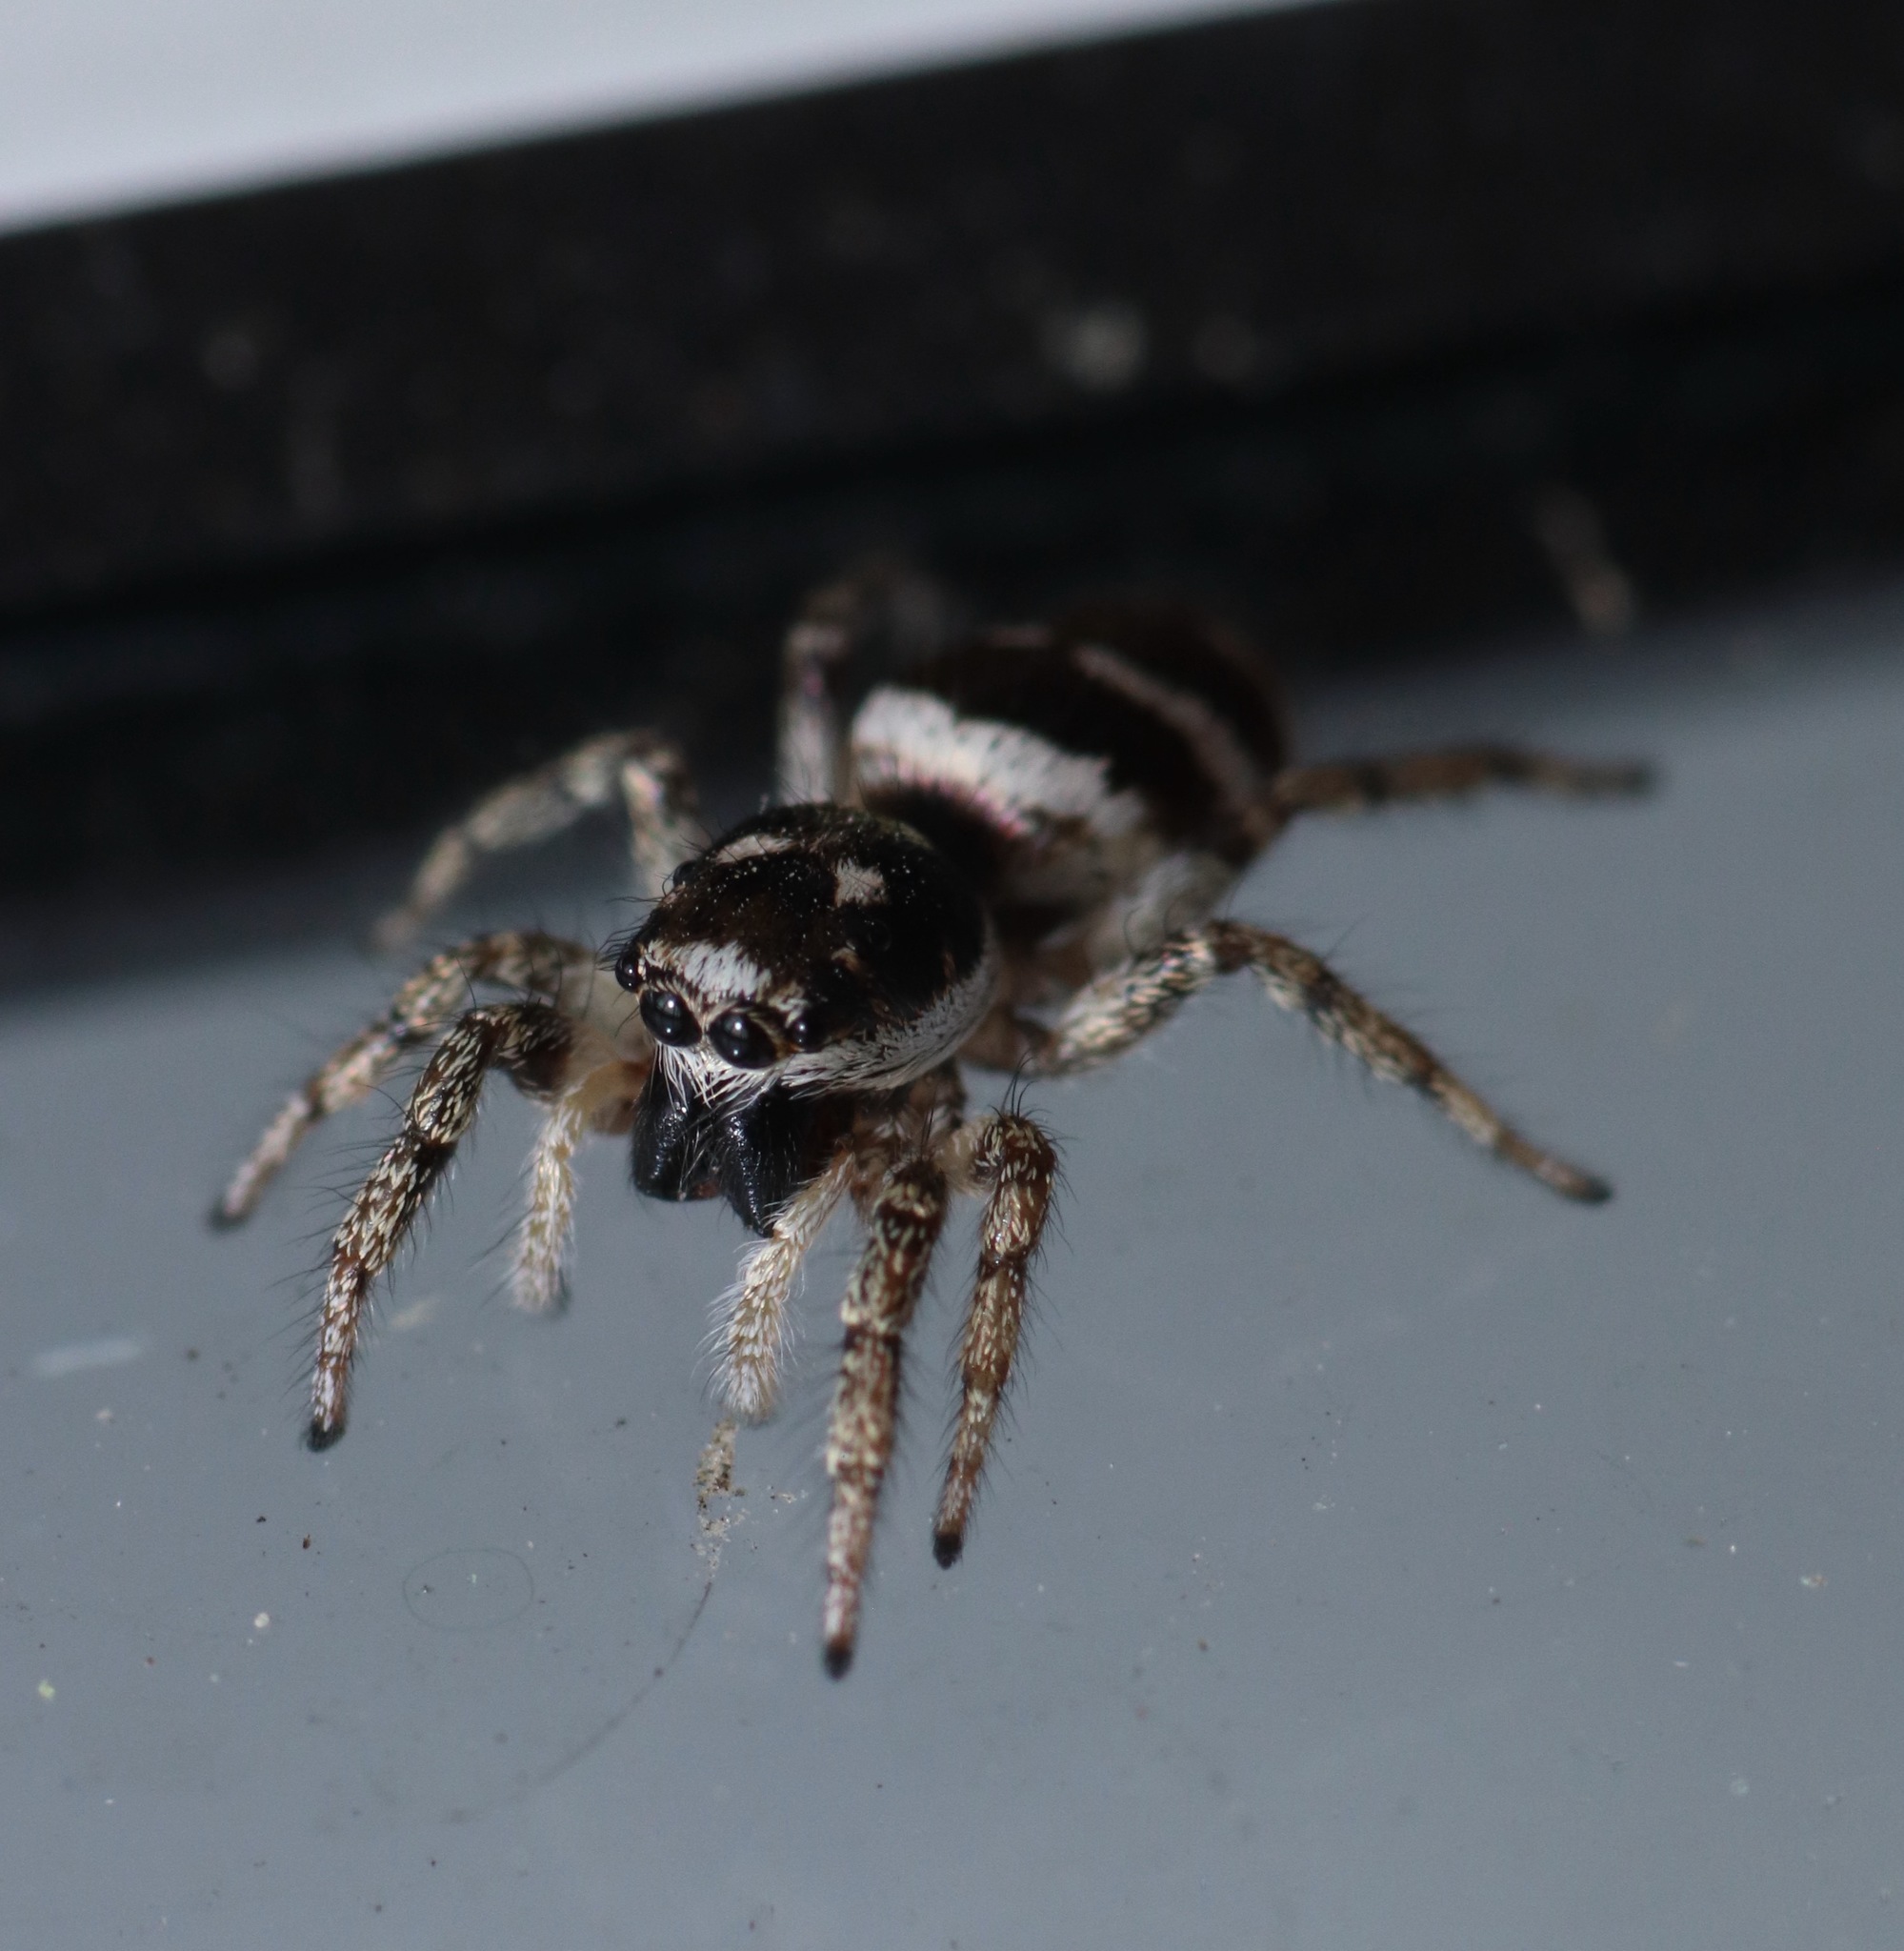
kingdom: Animalia
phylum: Arthropoda
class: Arachnida
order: Araneae
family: Salticidae
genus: Salticus
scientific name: Salticus scenicus
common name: Zebra jumper
